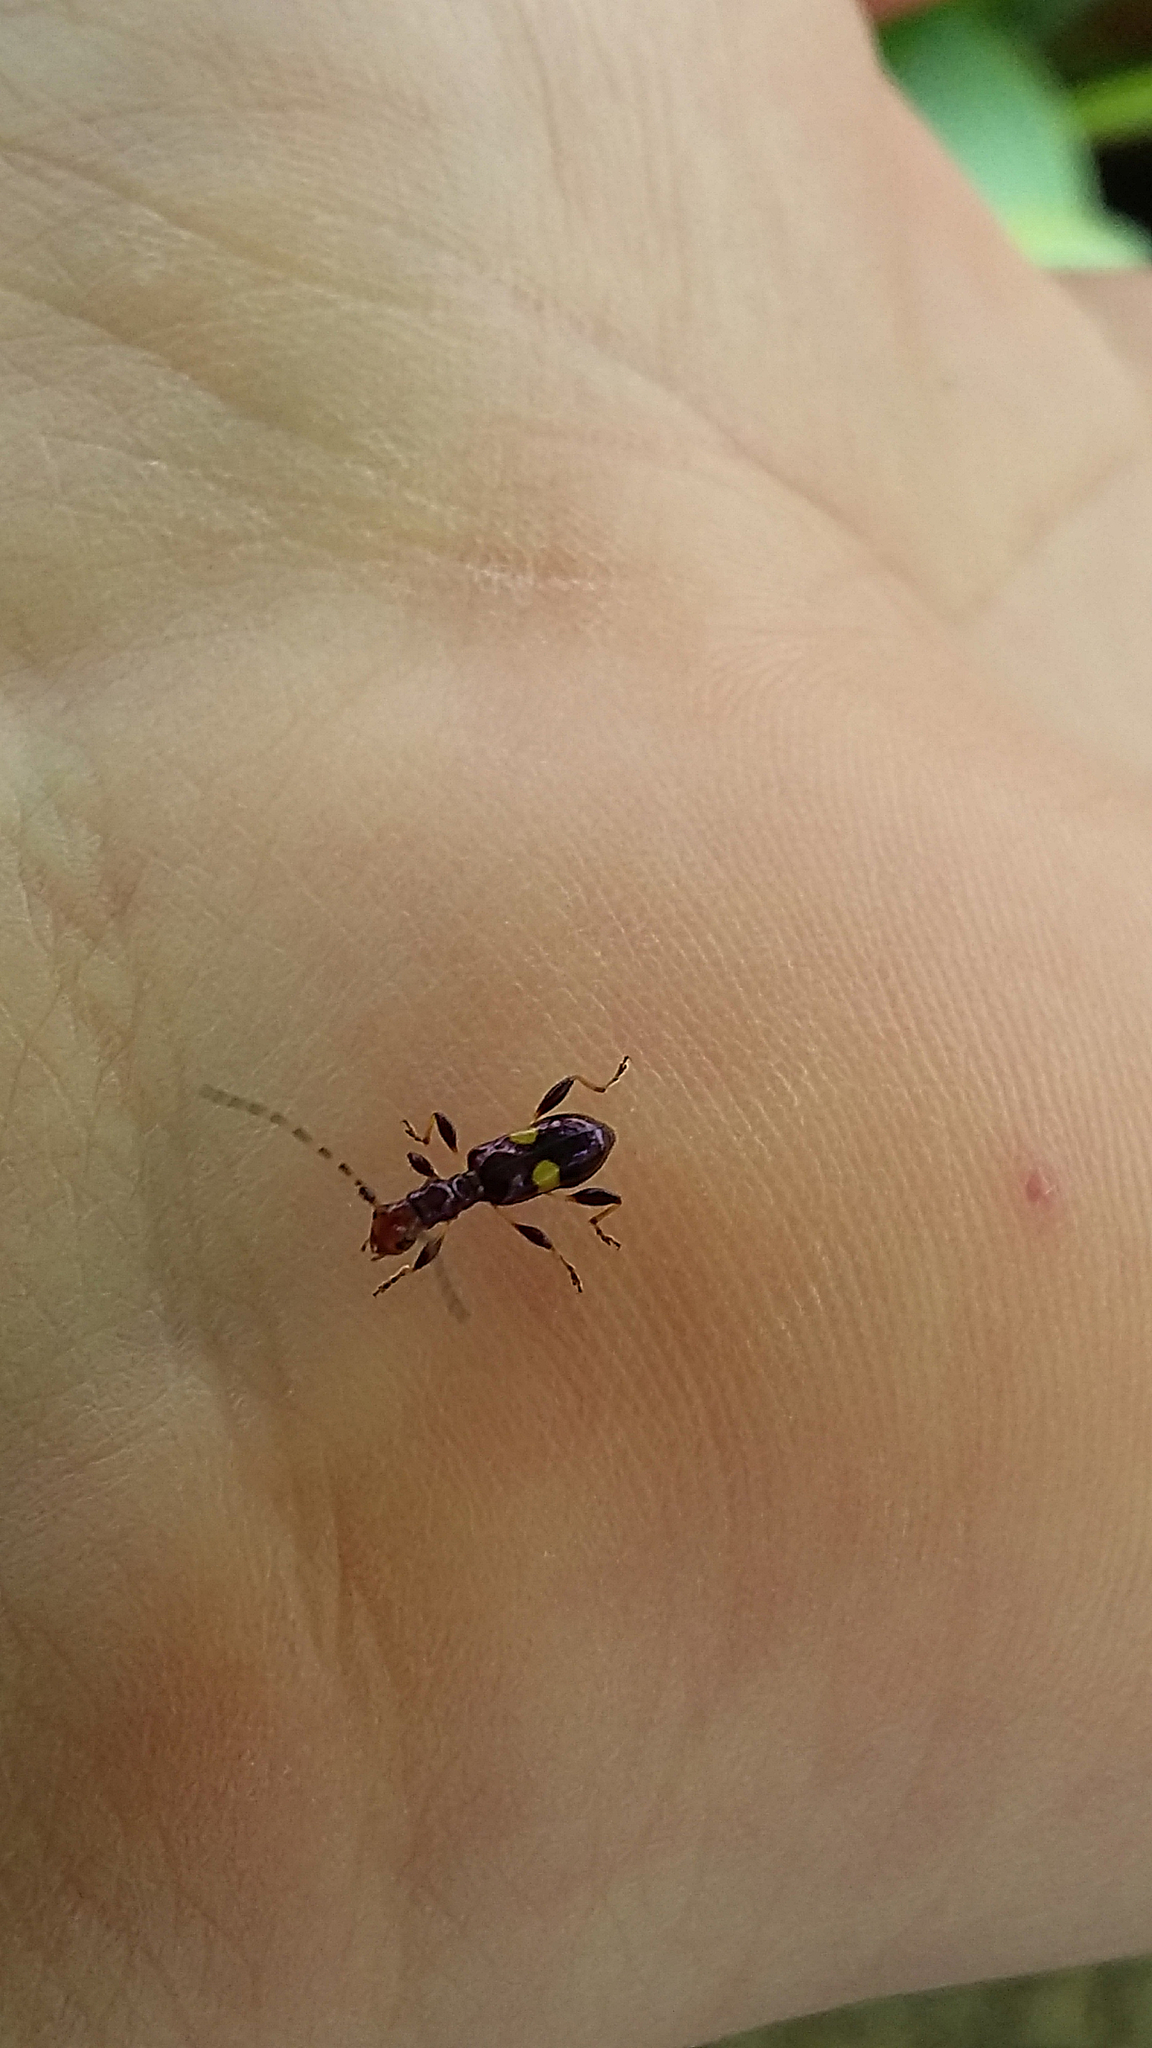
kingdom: Animalia
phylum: Arthropoda
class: Insecta
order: Coleoptera
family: Cerambycidae
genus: Zorion
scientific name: Zorion guttigerum
